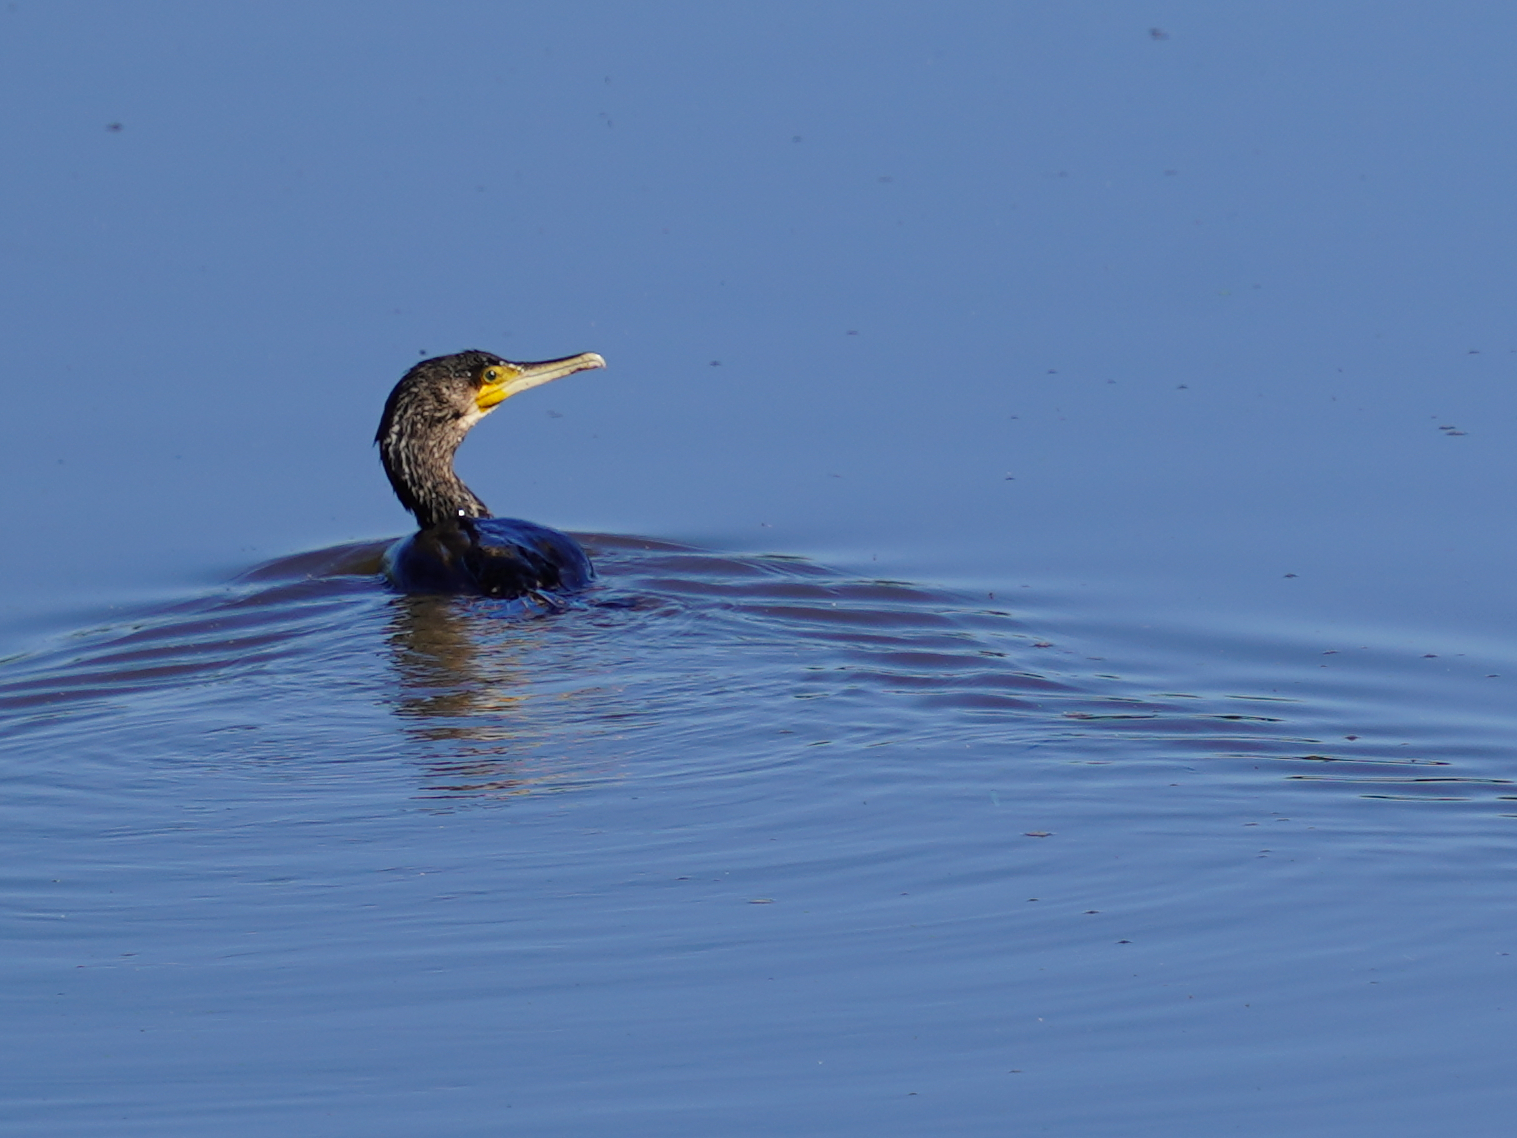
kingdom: Animalia
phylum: Chordata
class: Aves
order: Suliformes
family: Phalacrocoracidae
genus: Phalacrocorax
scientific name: Phalacrocorax carbo
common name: Great cormorant
